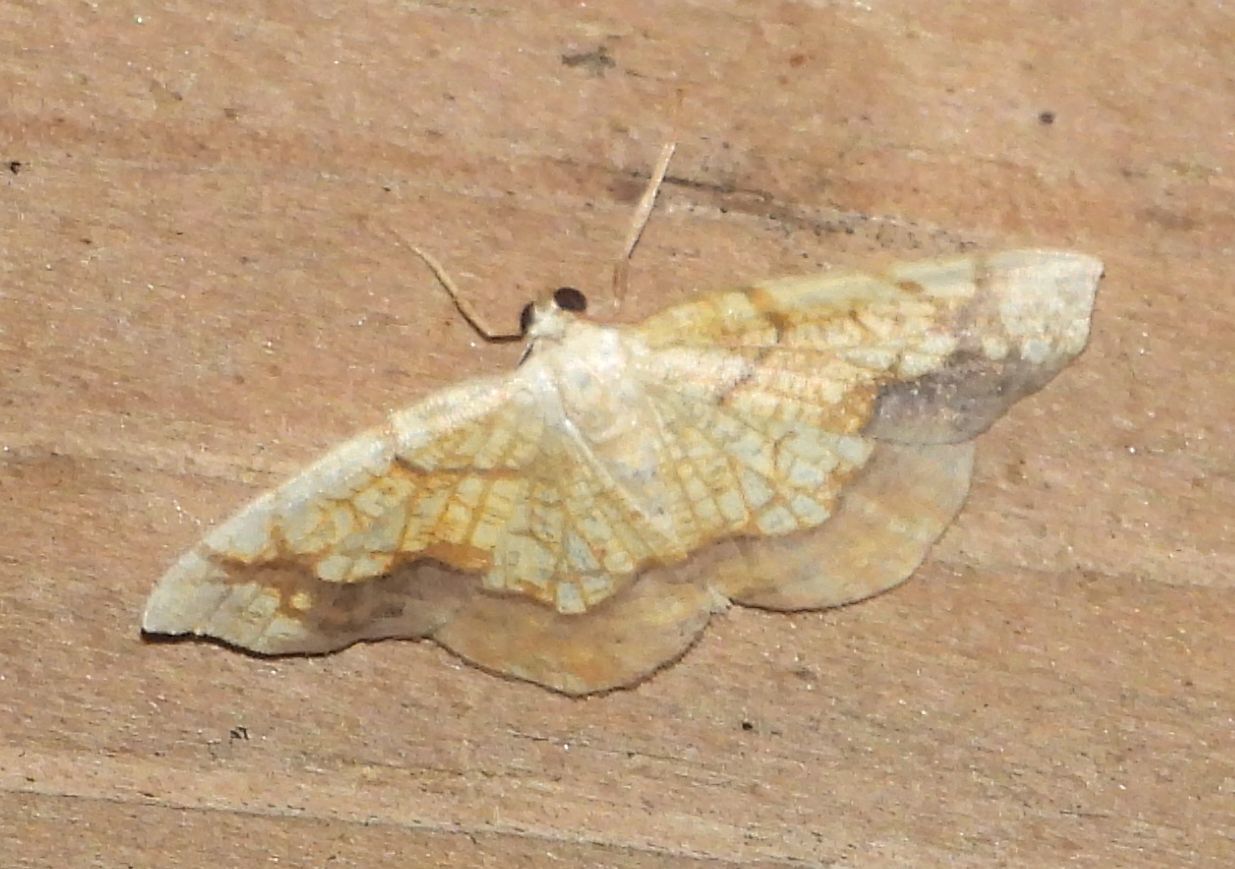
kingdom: Animalia
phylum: Arthropoda
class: Insecta
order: Lepidoptera
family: Geometridae
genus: Nematocampa
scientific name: Nematocampa resistaria
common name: Horned spanworm moth
